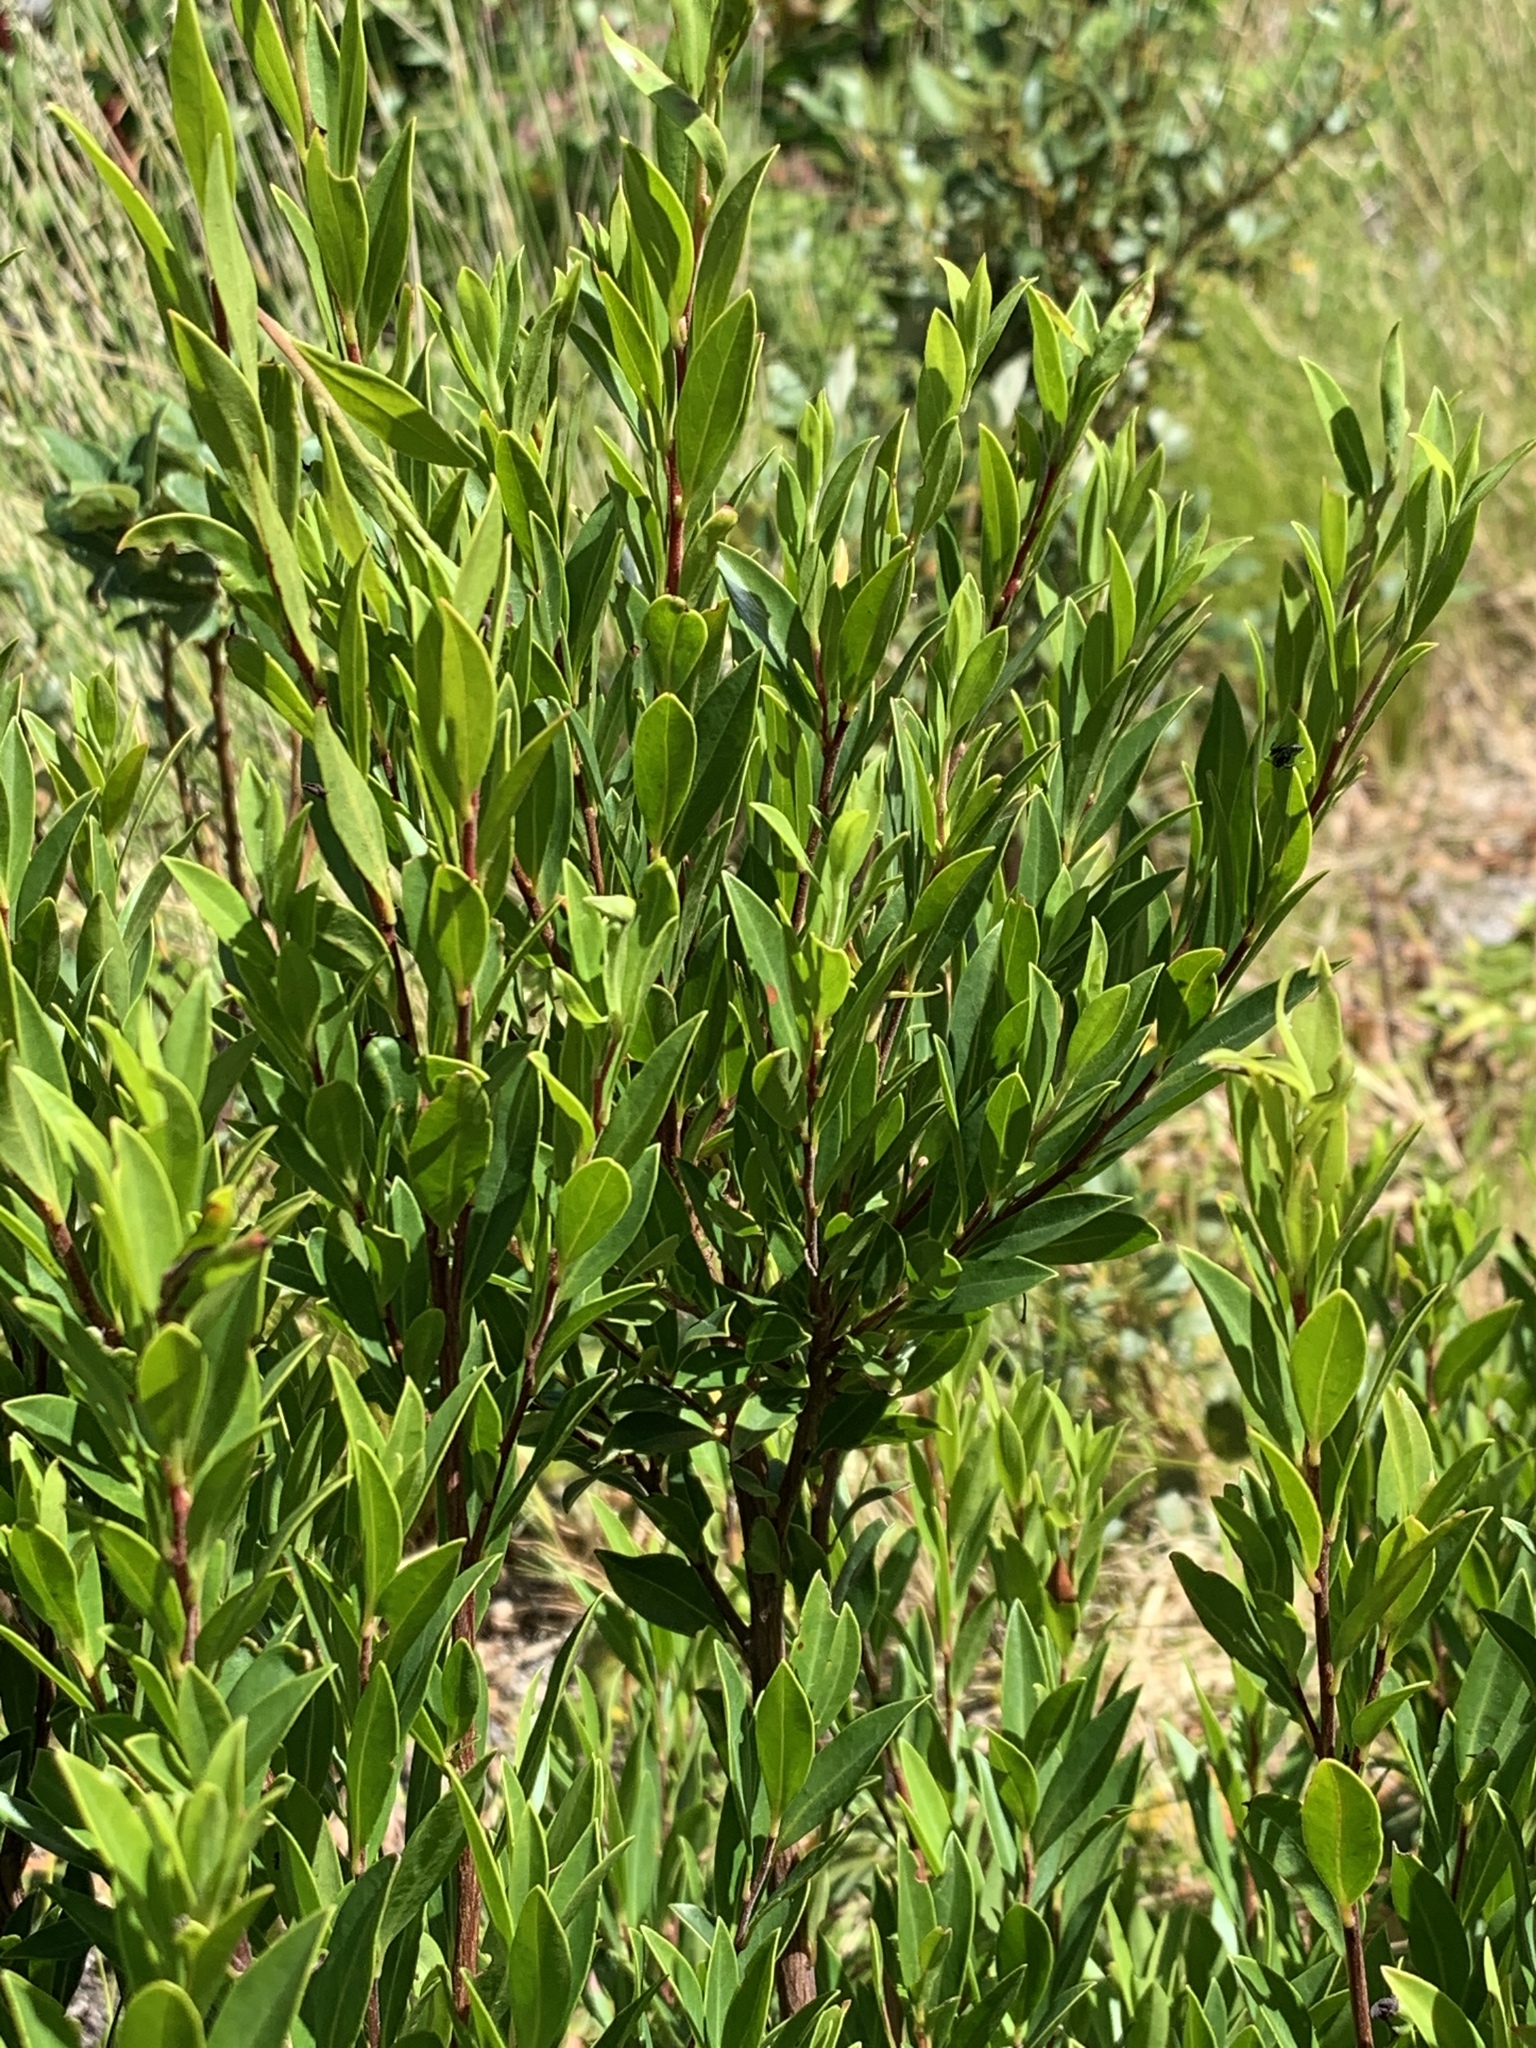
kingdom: Plantae
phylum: Tracheophyta
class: Magnoliopsida
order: Ericales
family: Ebenaceae
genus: Diospyros
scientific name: Diospyros glabra
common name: Fynbos star apple
